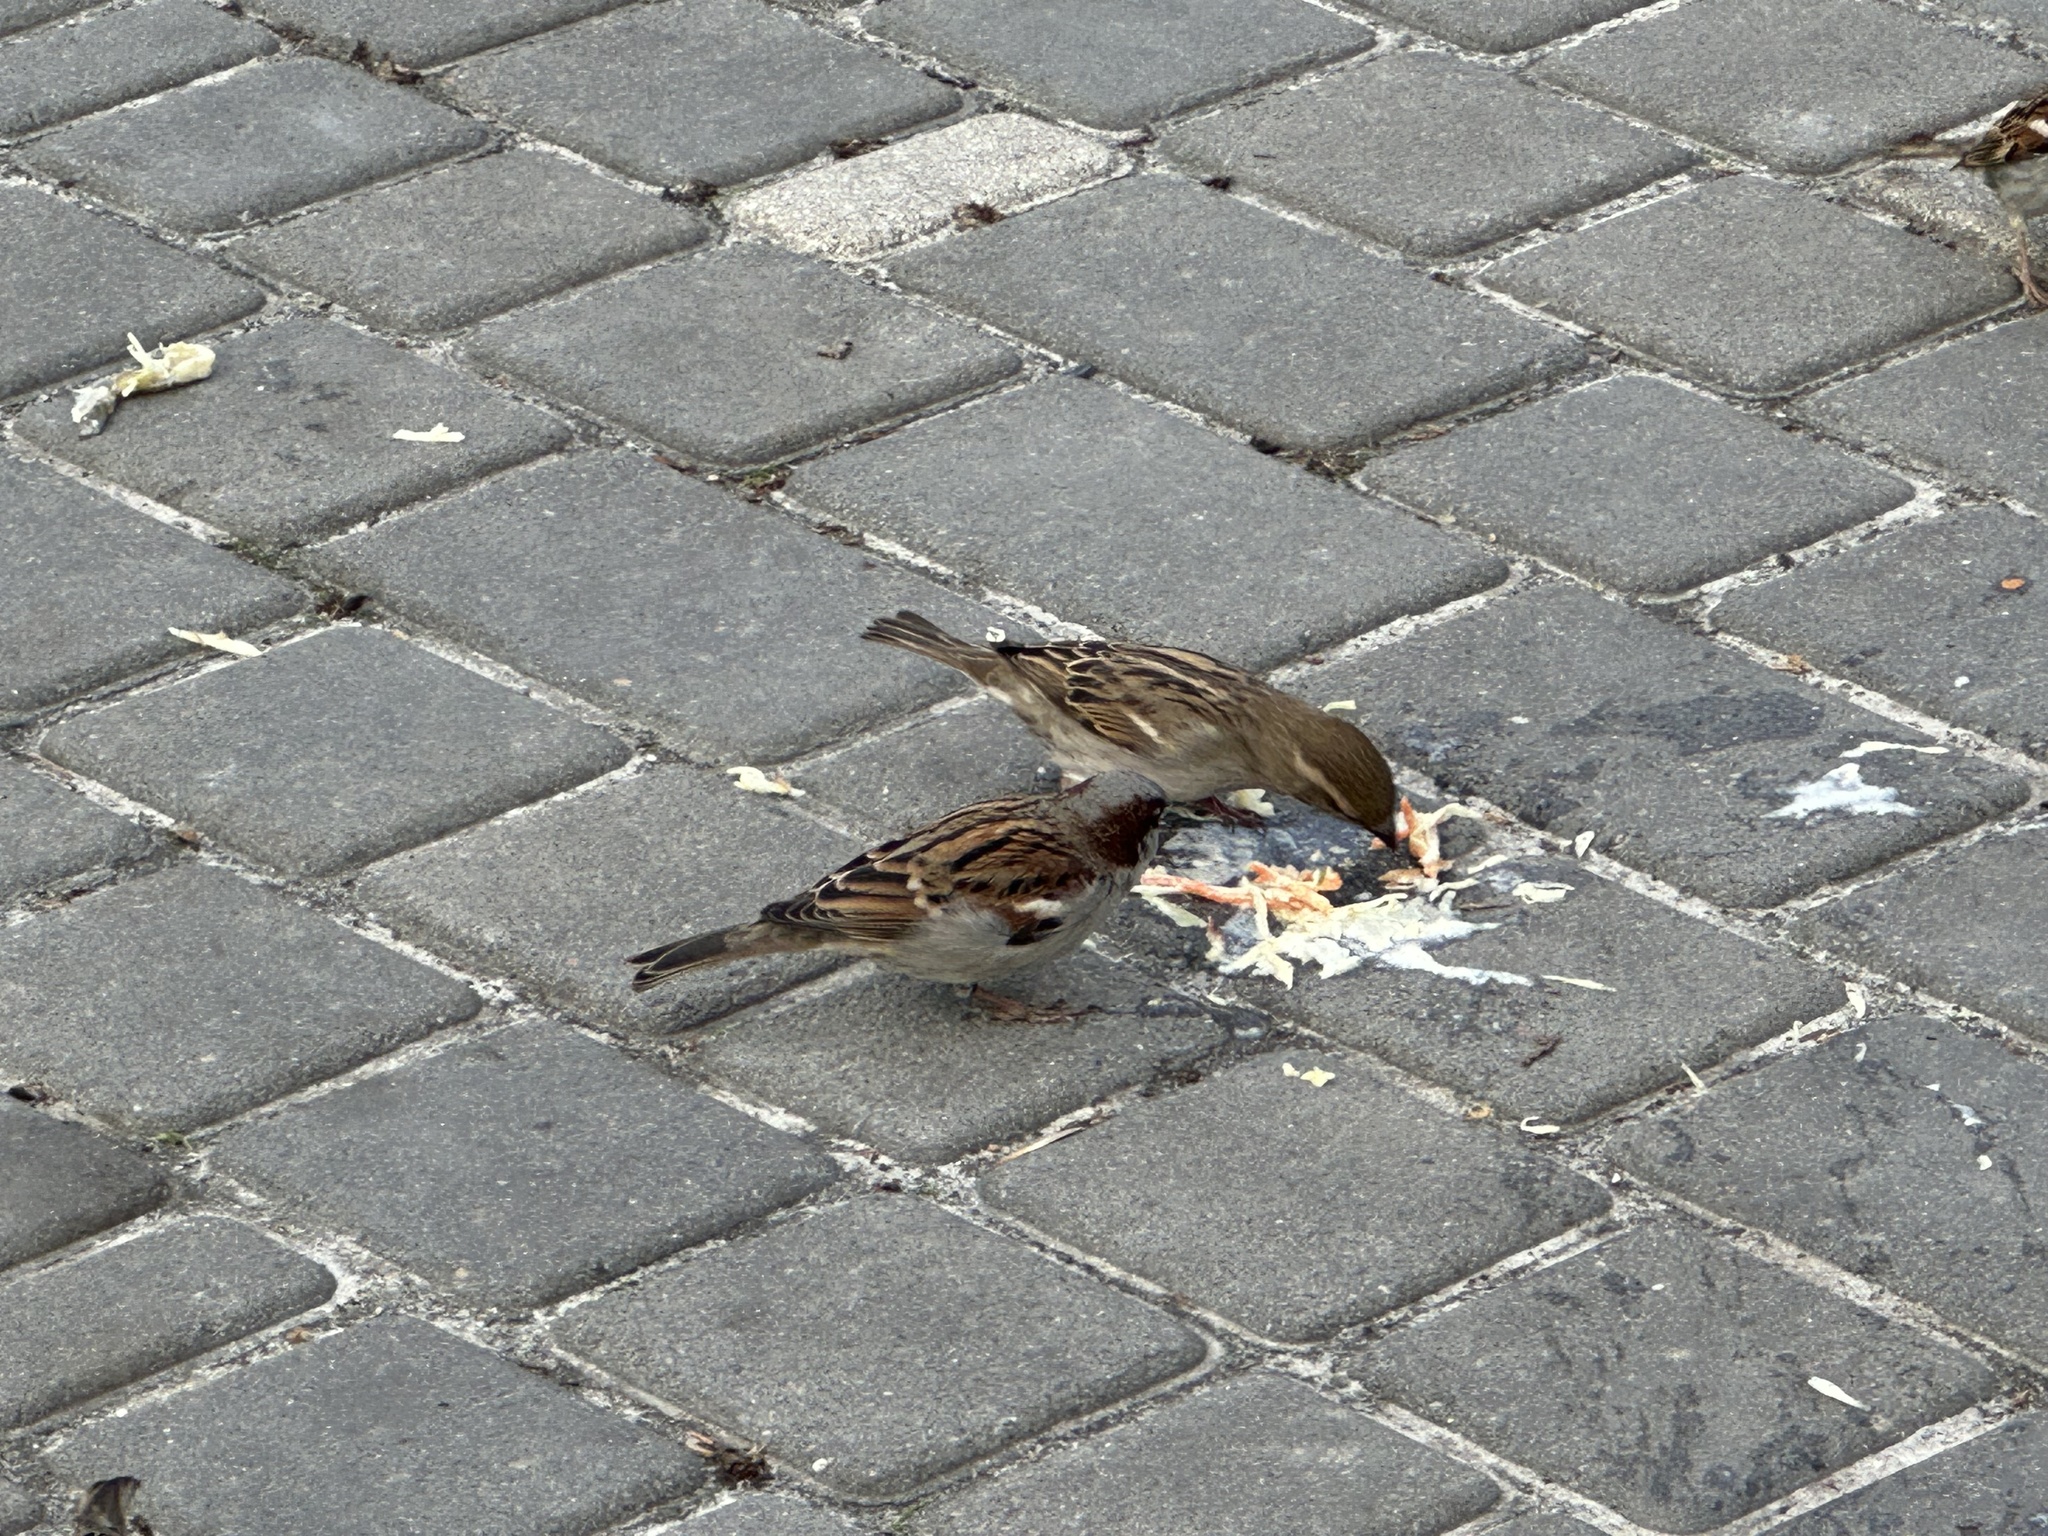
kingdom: Animalia
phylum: Chordata
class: Aves
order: Passeriformes
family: Passeridae
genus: Passer
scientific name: Passer domesticus
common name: House sparrow
